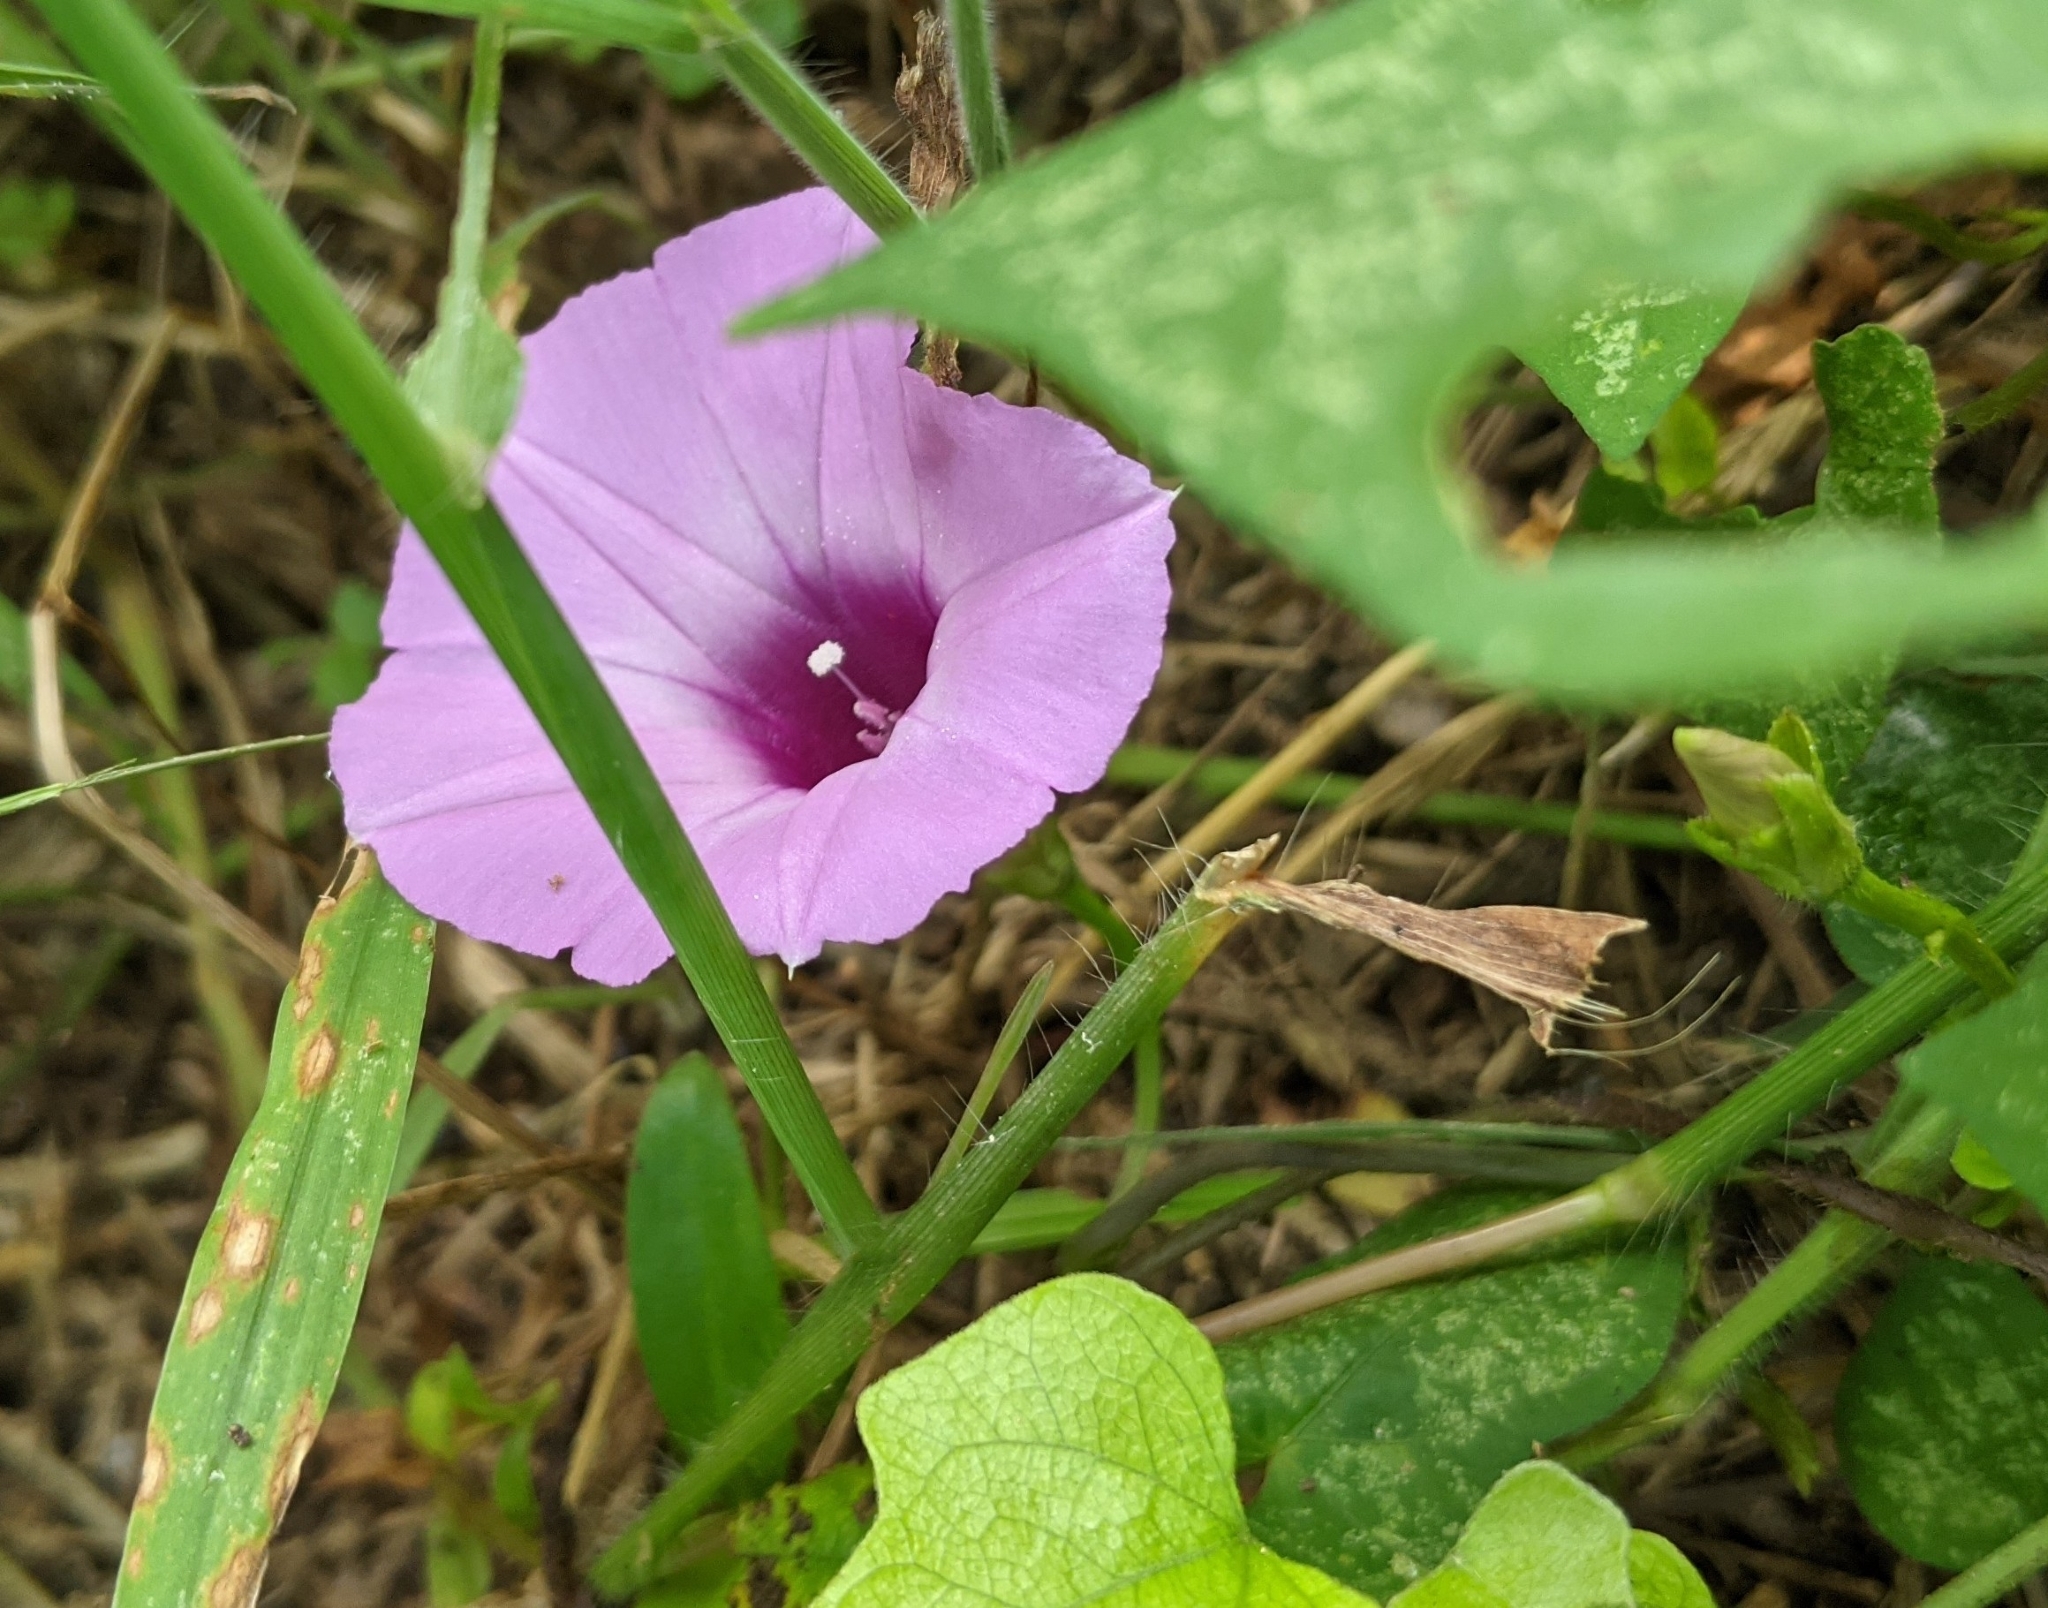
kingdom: Plantae
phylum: Tracheophyta
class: Magnoliopsida
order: Solanales
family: Convolvulaceae
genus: Ipomoea
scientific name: Ipomoea cordatotriloba
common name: Cotton morning glory
